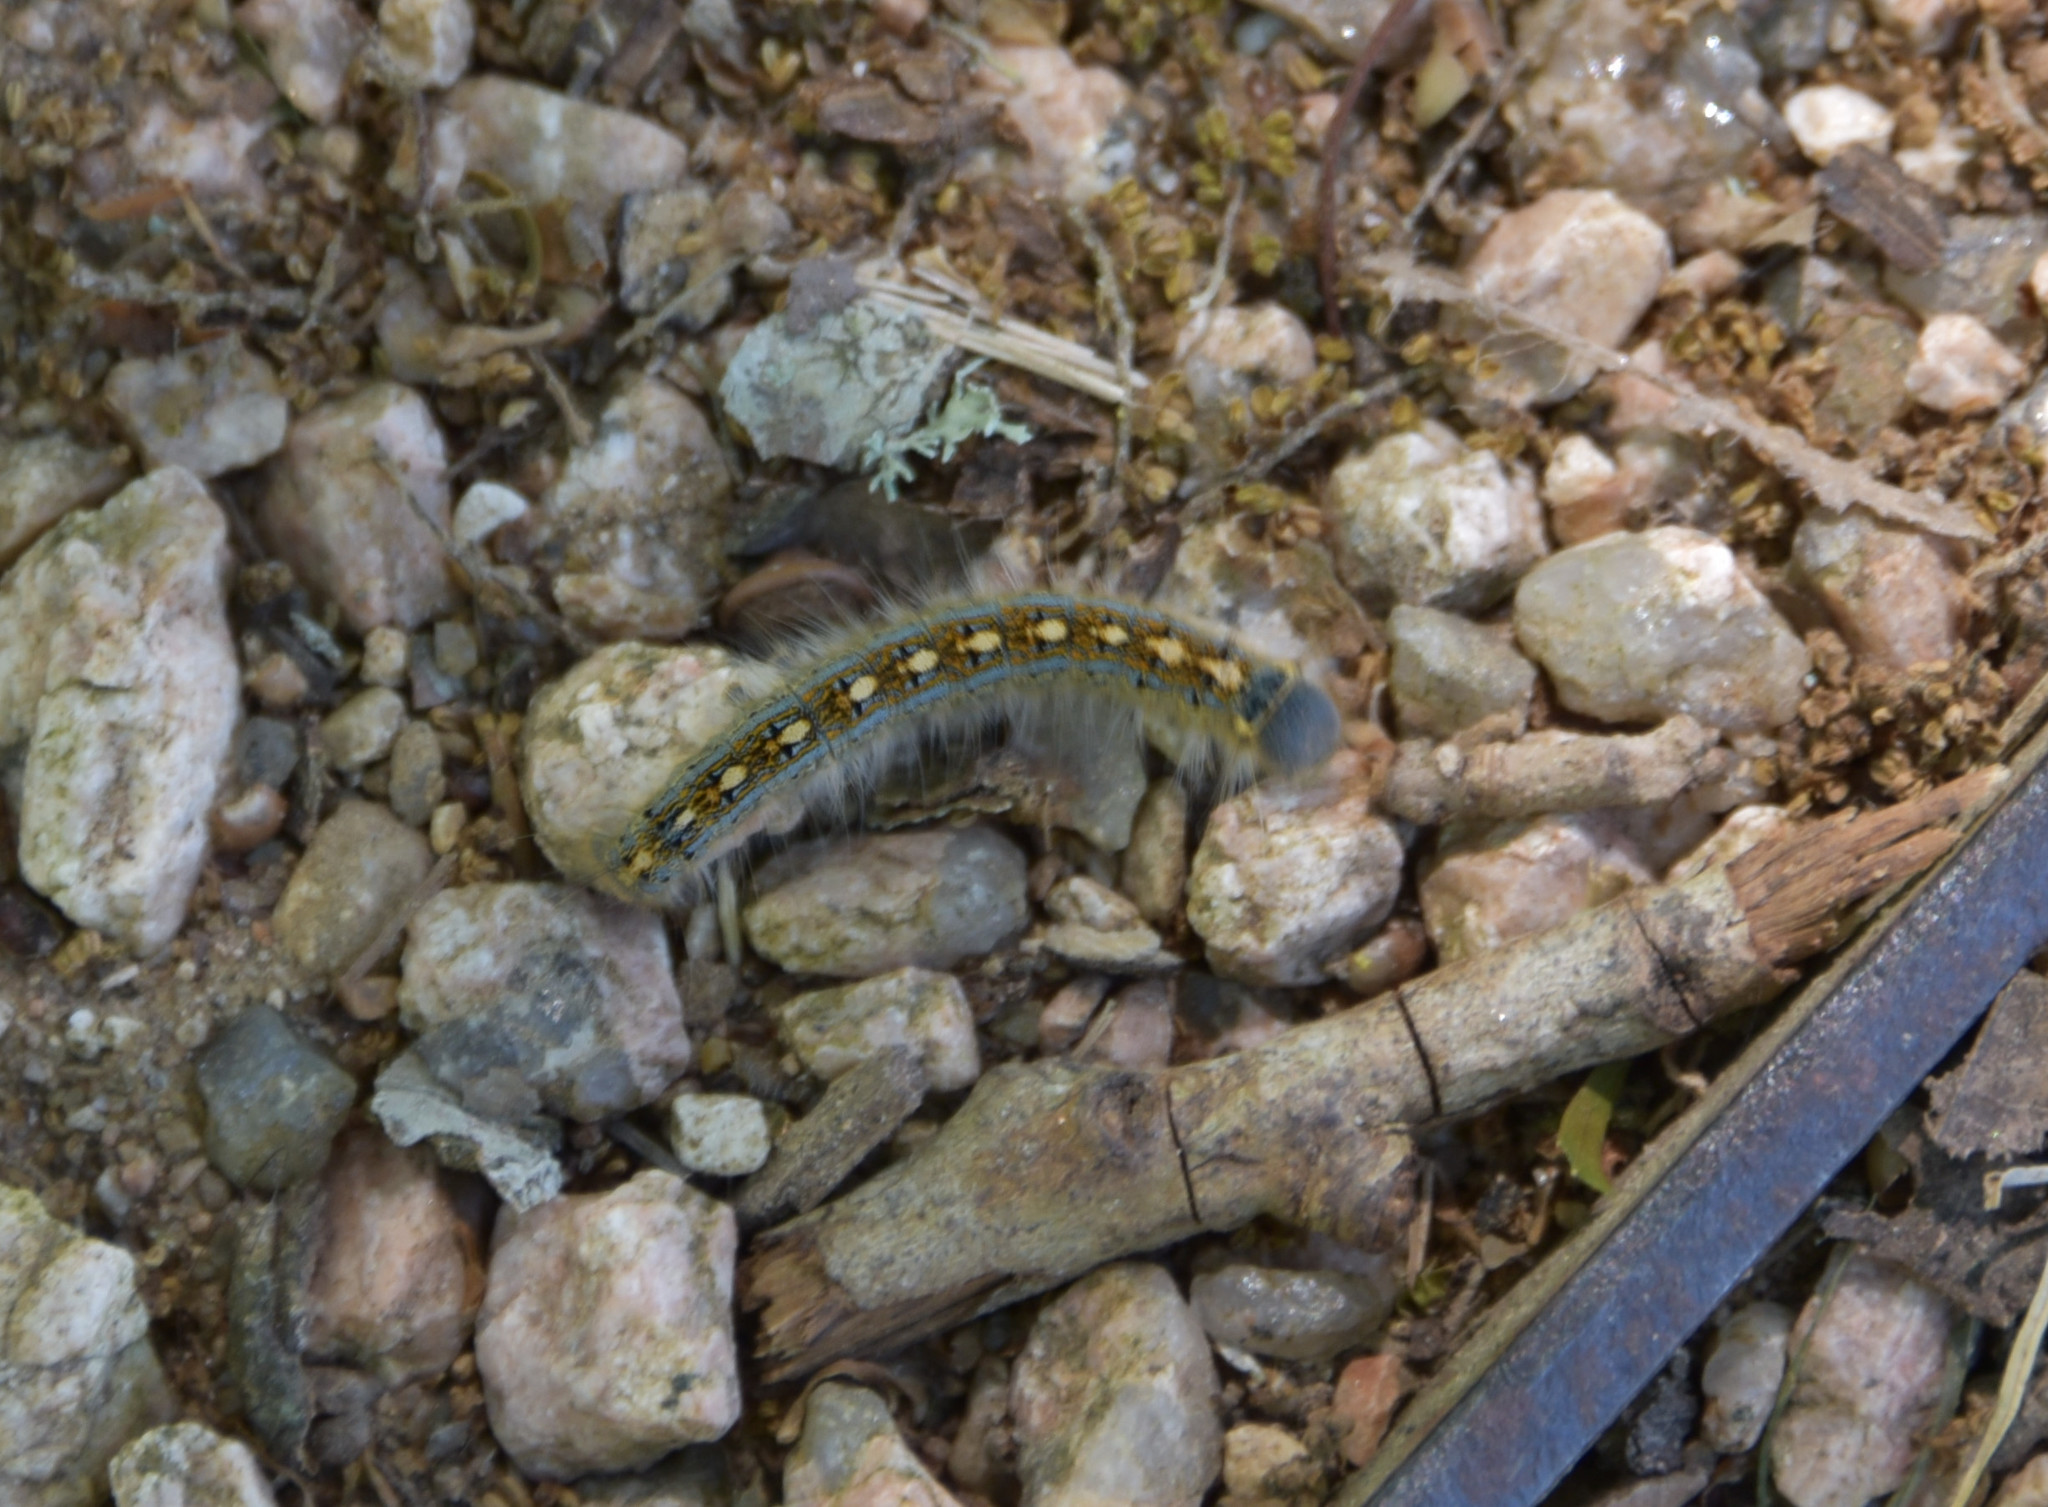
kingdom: Animalia
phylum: Arthropoda
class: Insecta
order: Lepidoptera
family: Lasiocampidae
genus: Malacosoma
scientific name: Malacosoma disstria
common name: Forest tent caterpillar
